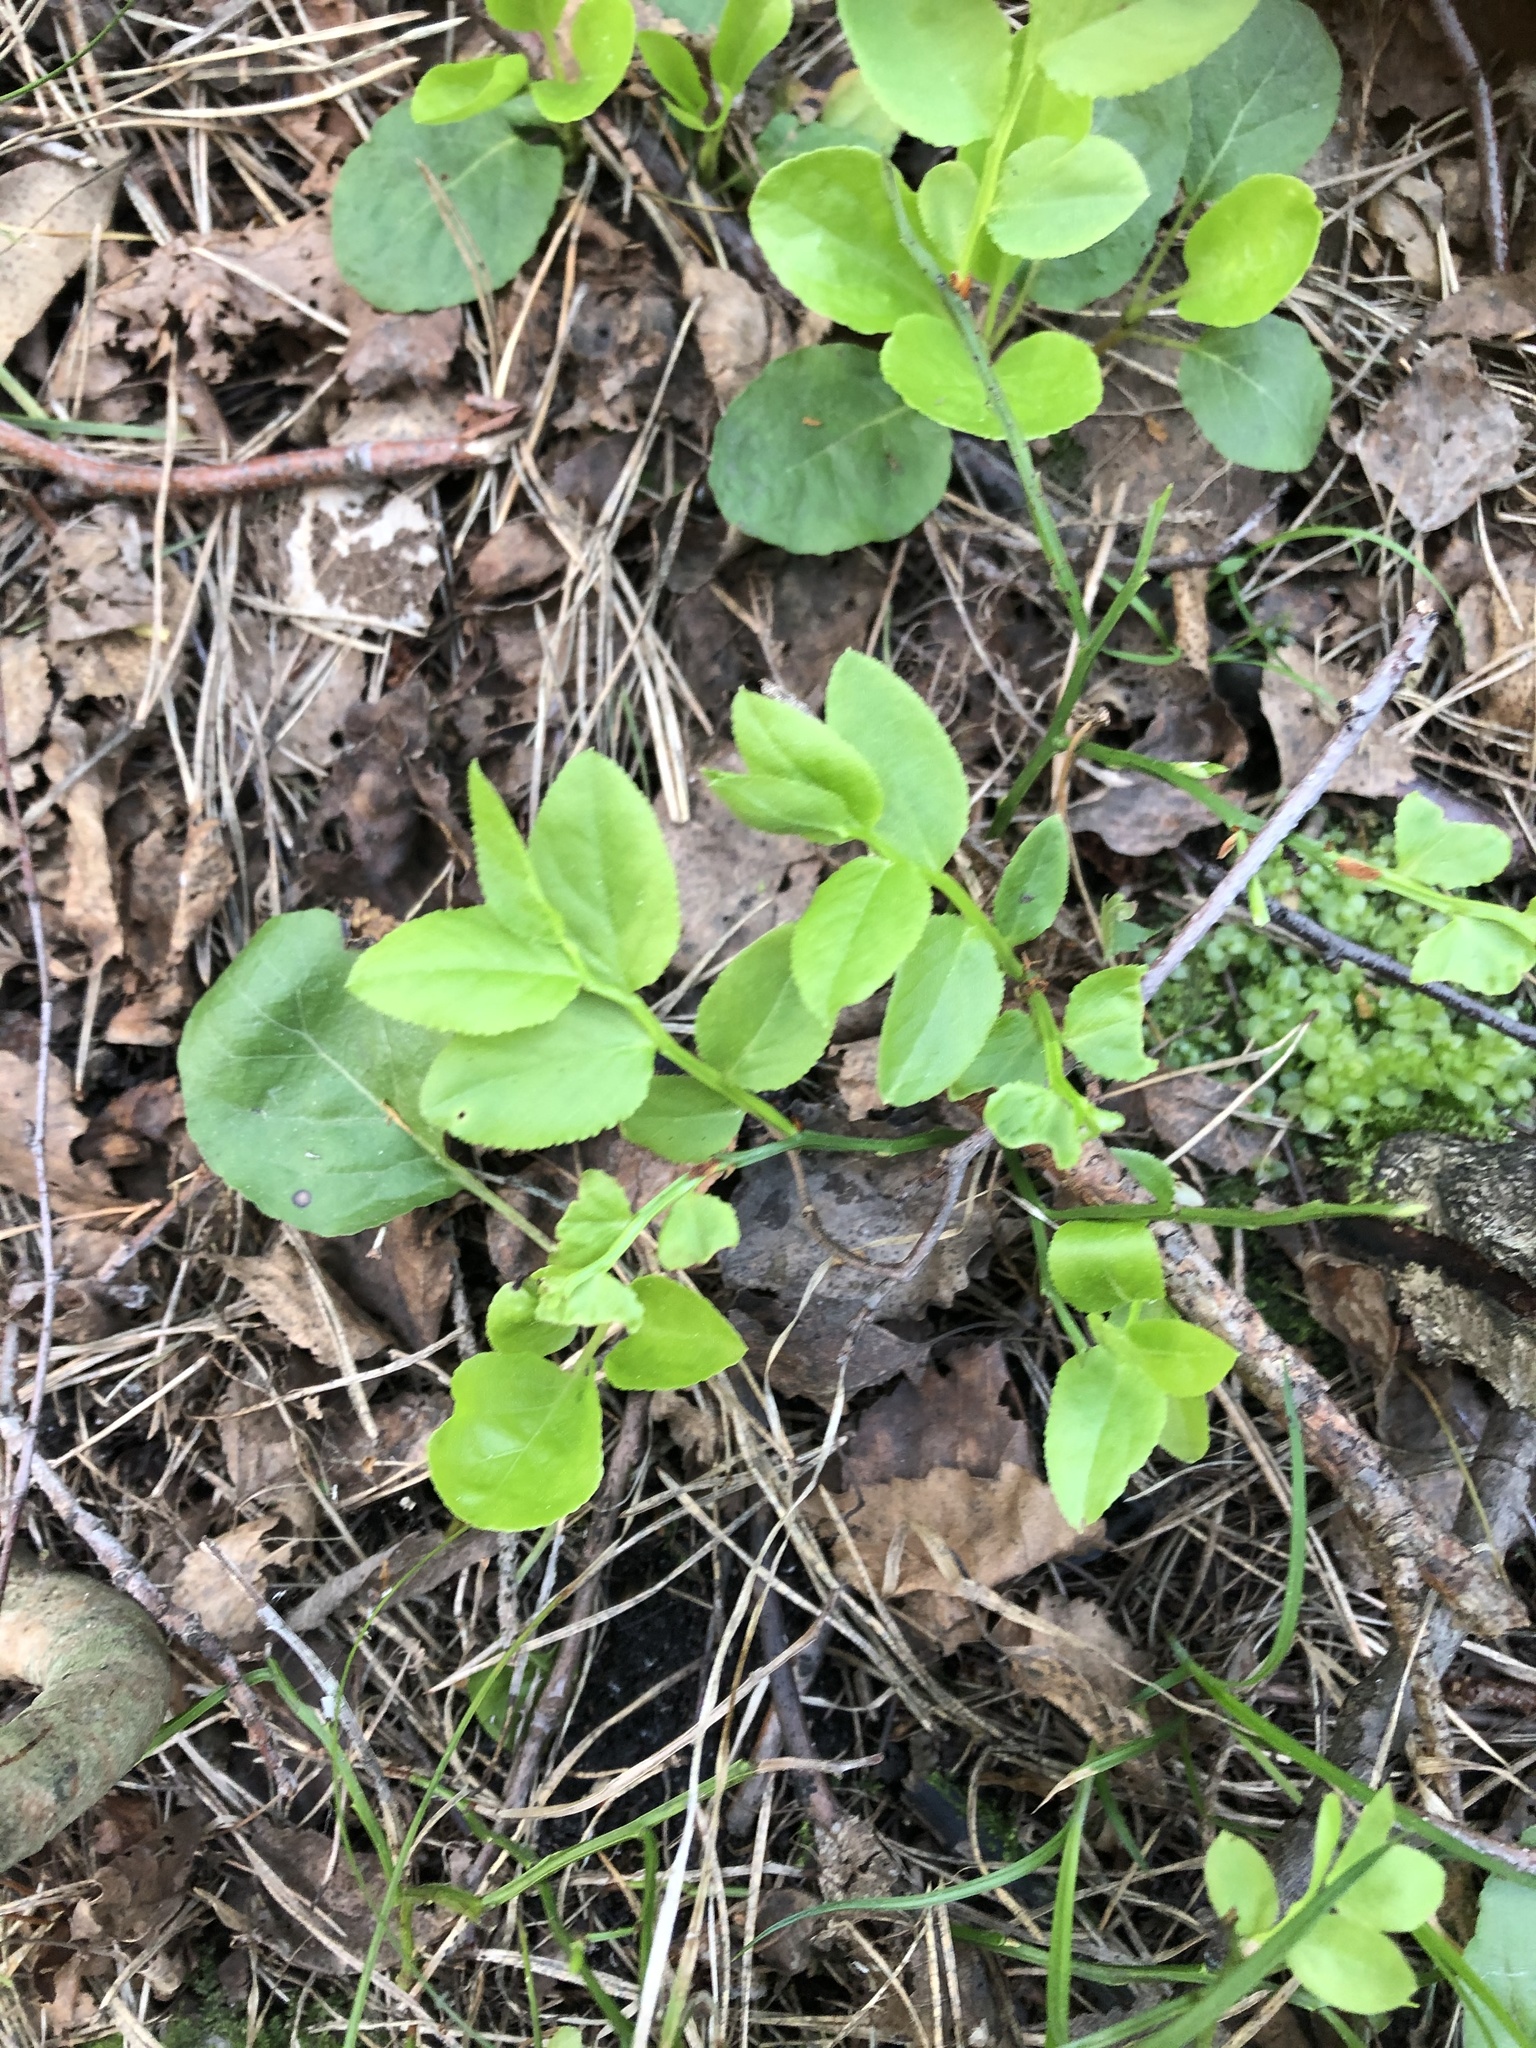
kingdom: Plantae
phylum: Tracheophyta
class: Magnoliopsida
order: Ericales
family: Ericaceae
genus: Vaccinium
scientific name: Vaccinium myrtillus
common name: Bilberry
